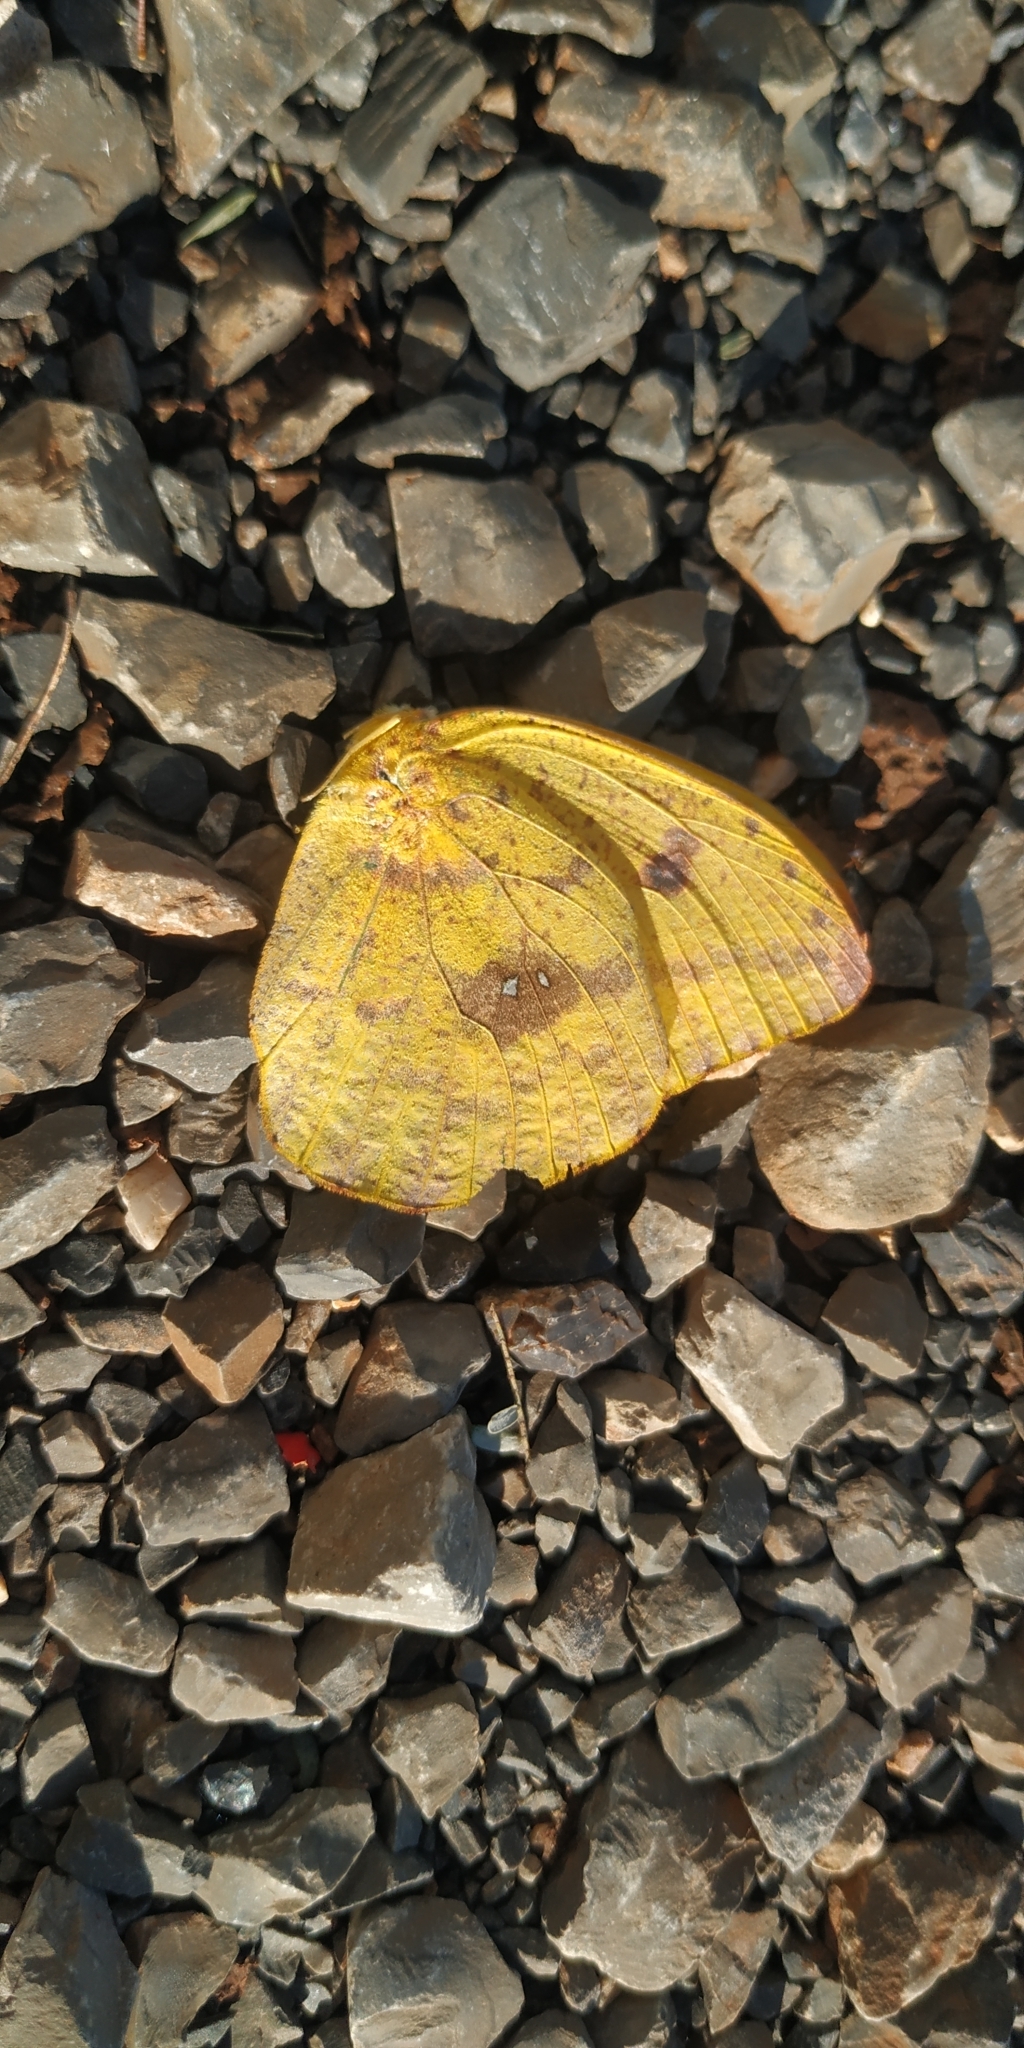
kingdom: Animalia
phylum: Arthropoda
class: Insecta
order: Lepidoptera
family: Pieridae
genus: Phoebis
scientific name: Phoebis agarithe
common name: Large orange sulphur
